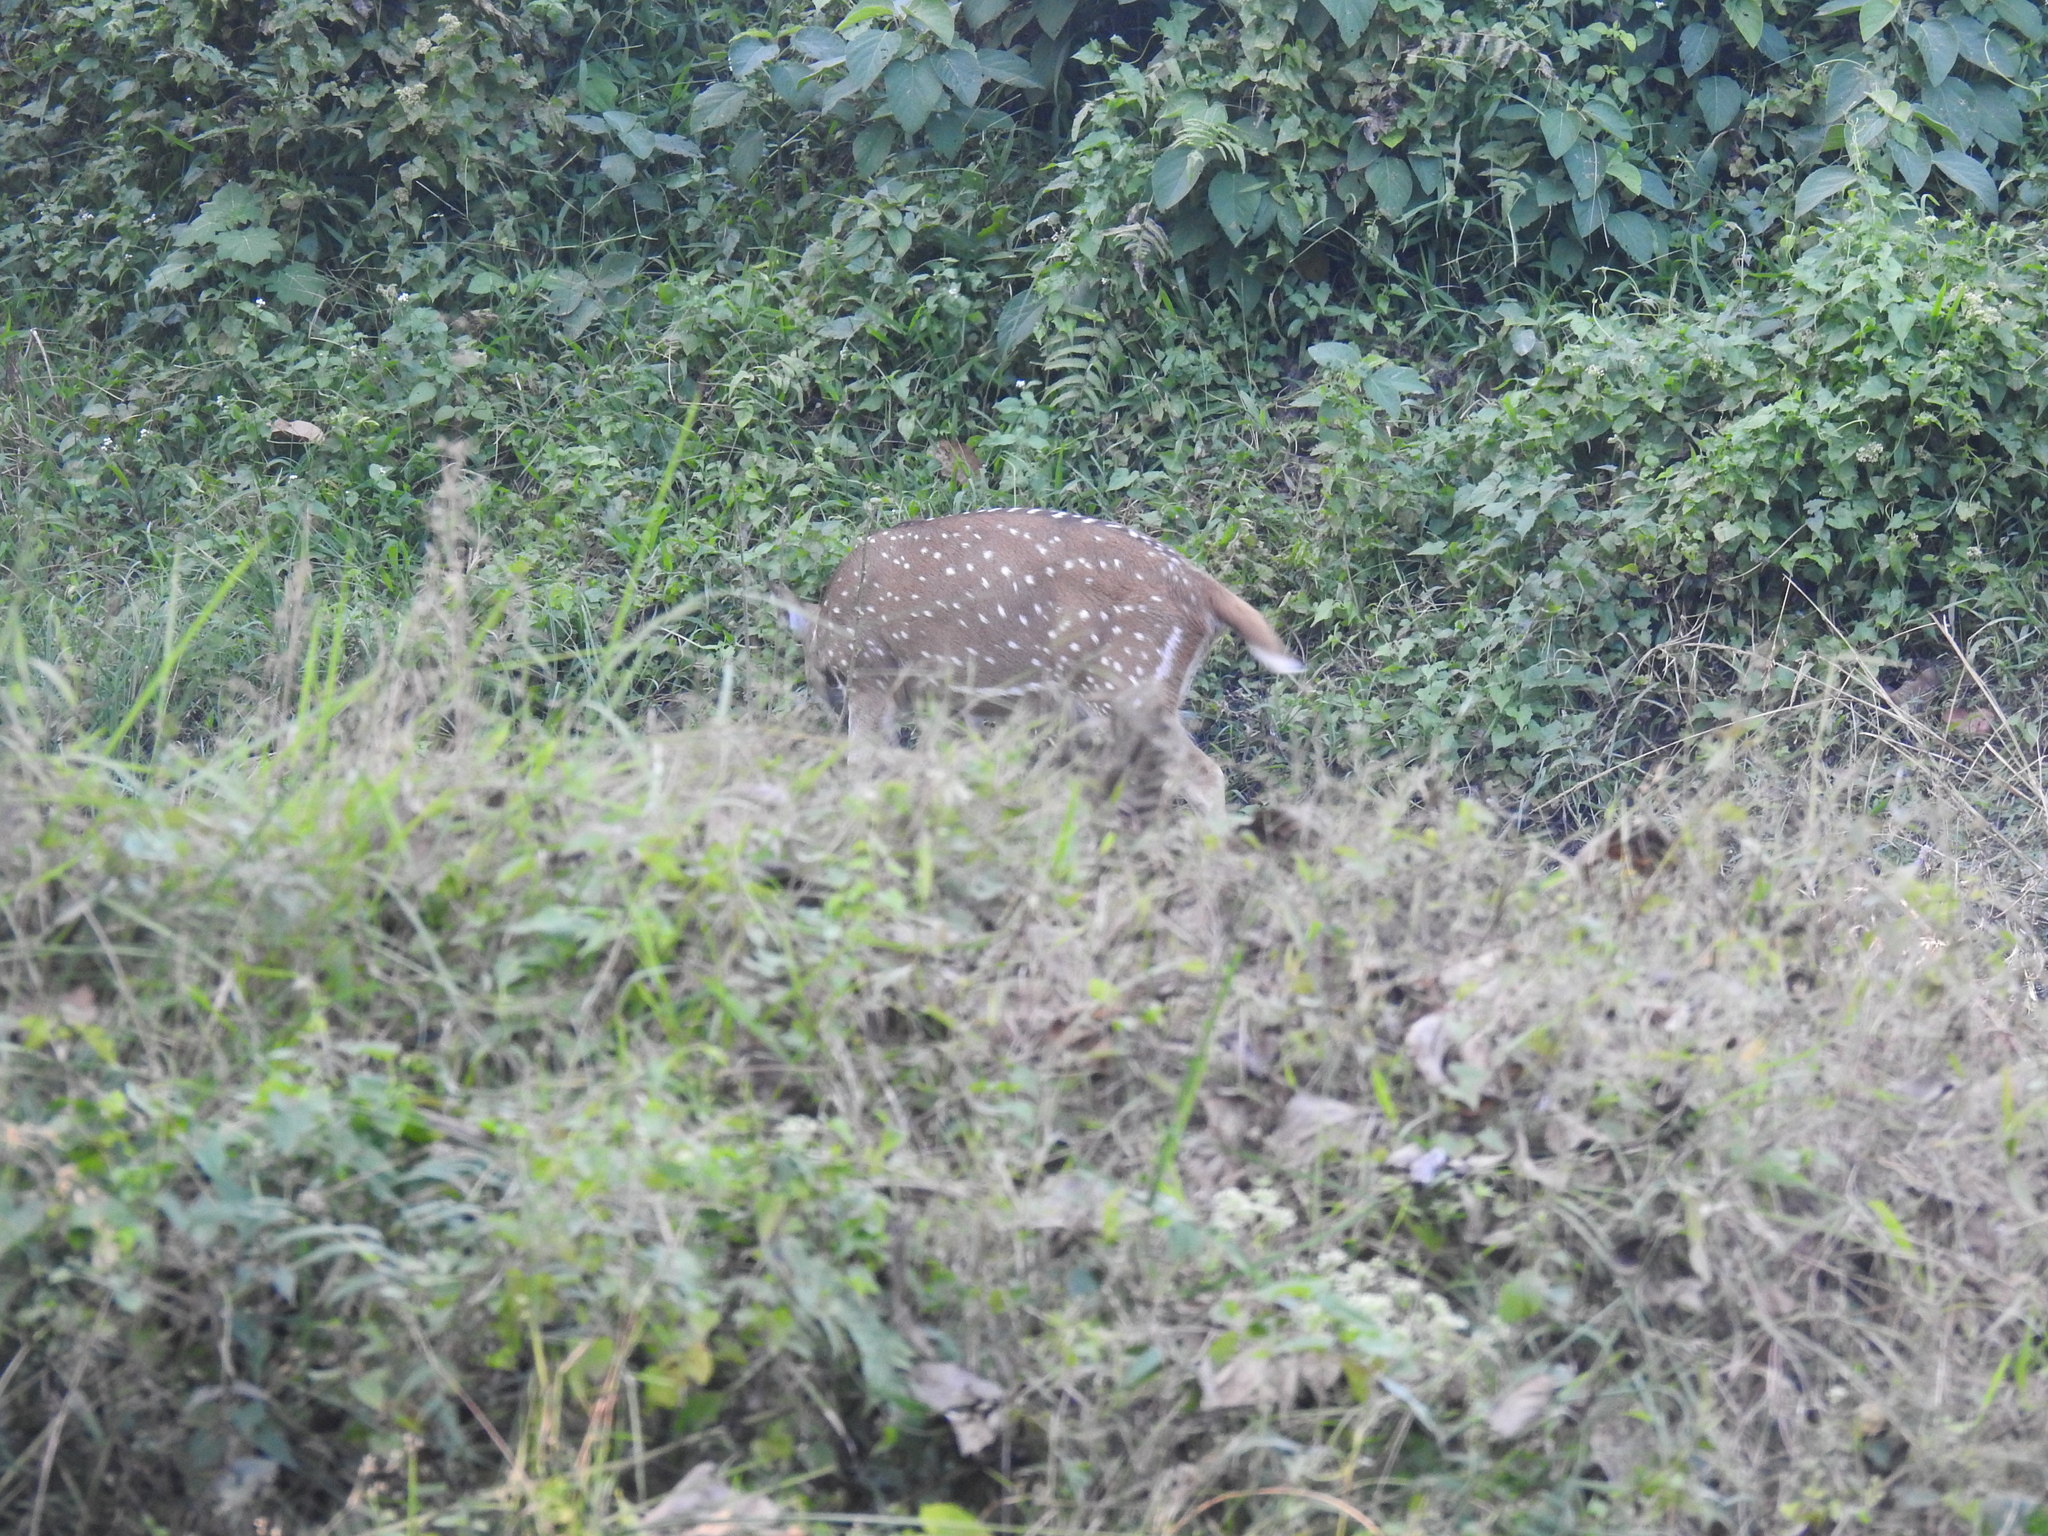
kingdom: Animalia
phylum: Chordata
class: Mammalia
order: Artiodactyla
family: Cervidae
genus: Axis
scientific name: Axis axis
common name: Chital
